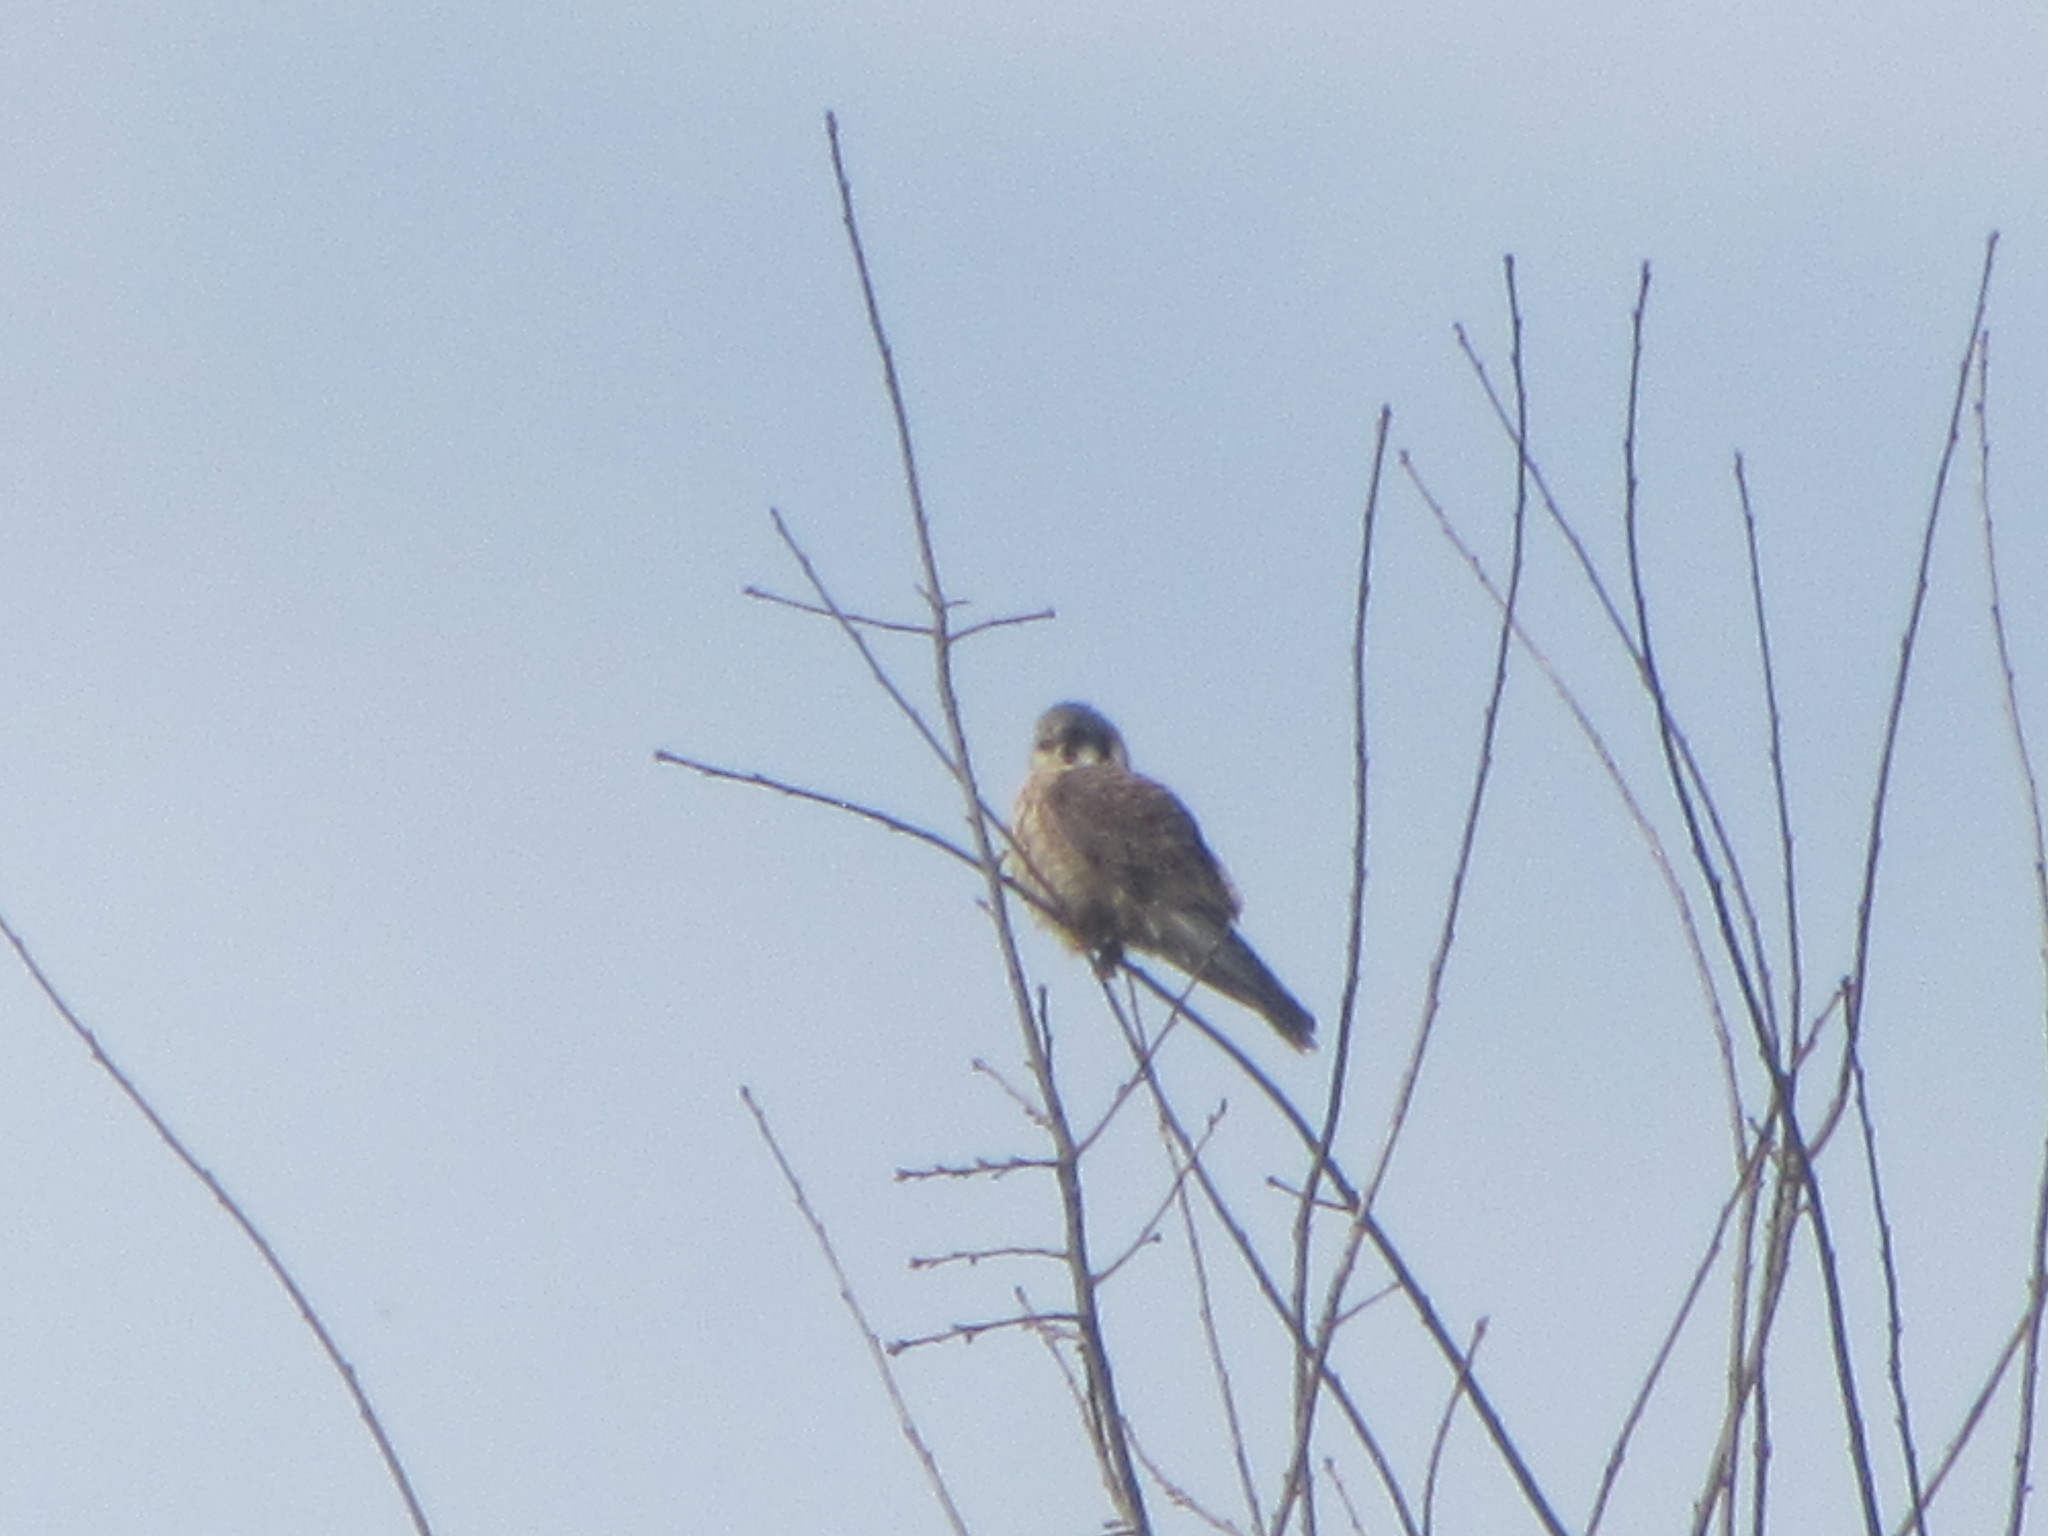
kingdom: Animalia
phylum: Chordata
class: Aves
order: Falconiformes
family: Falconidae
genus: Falco
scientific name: Falco sparverius
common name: American kestrel
